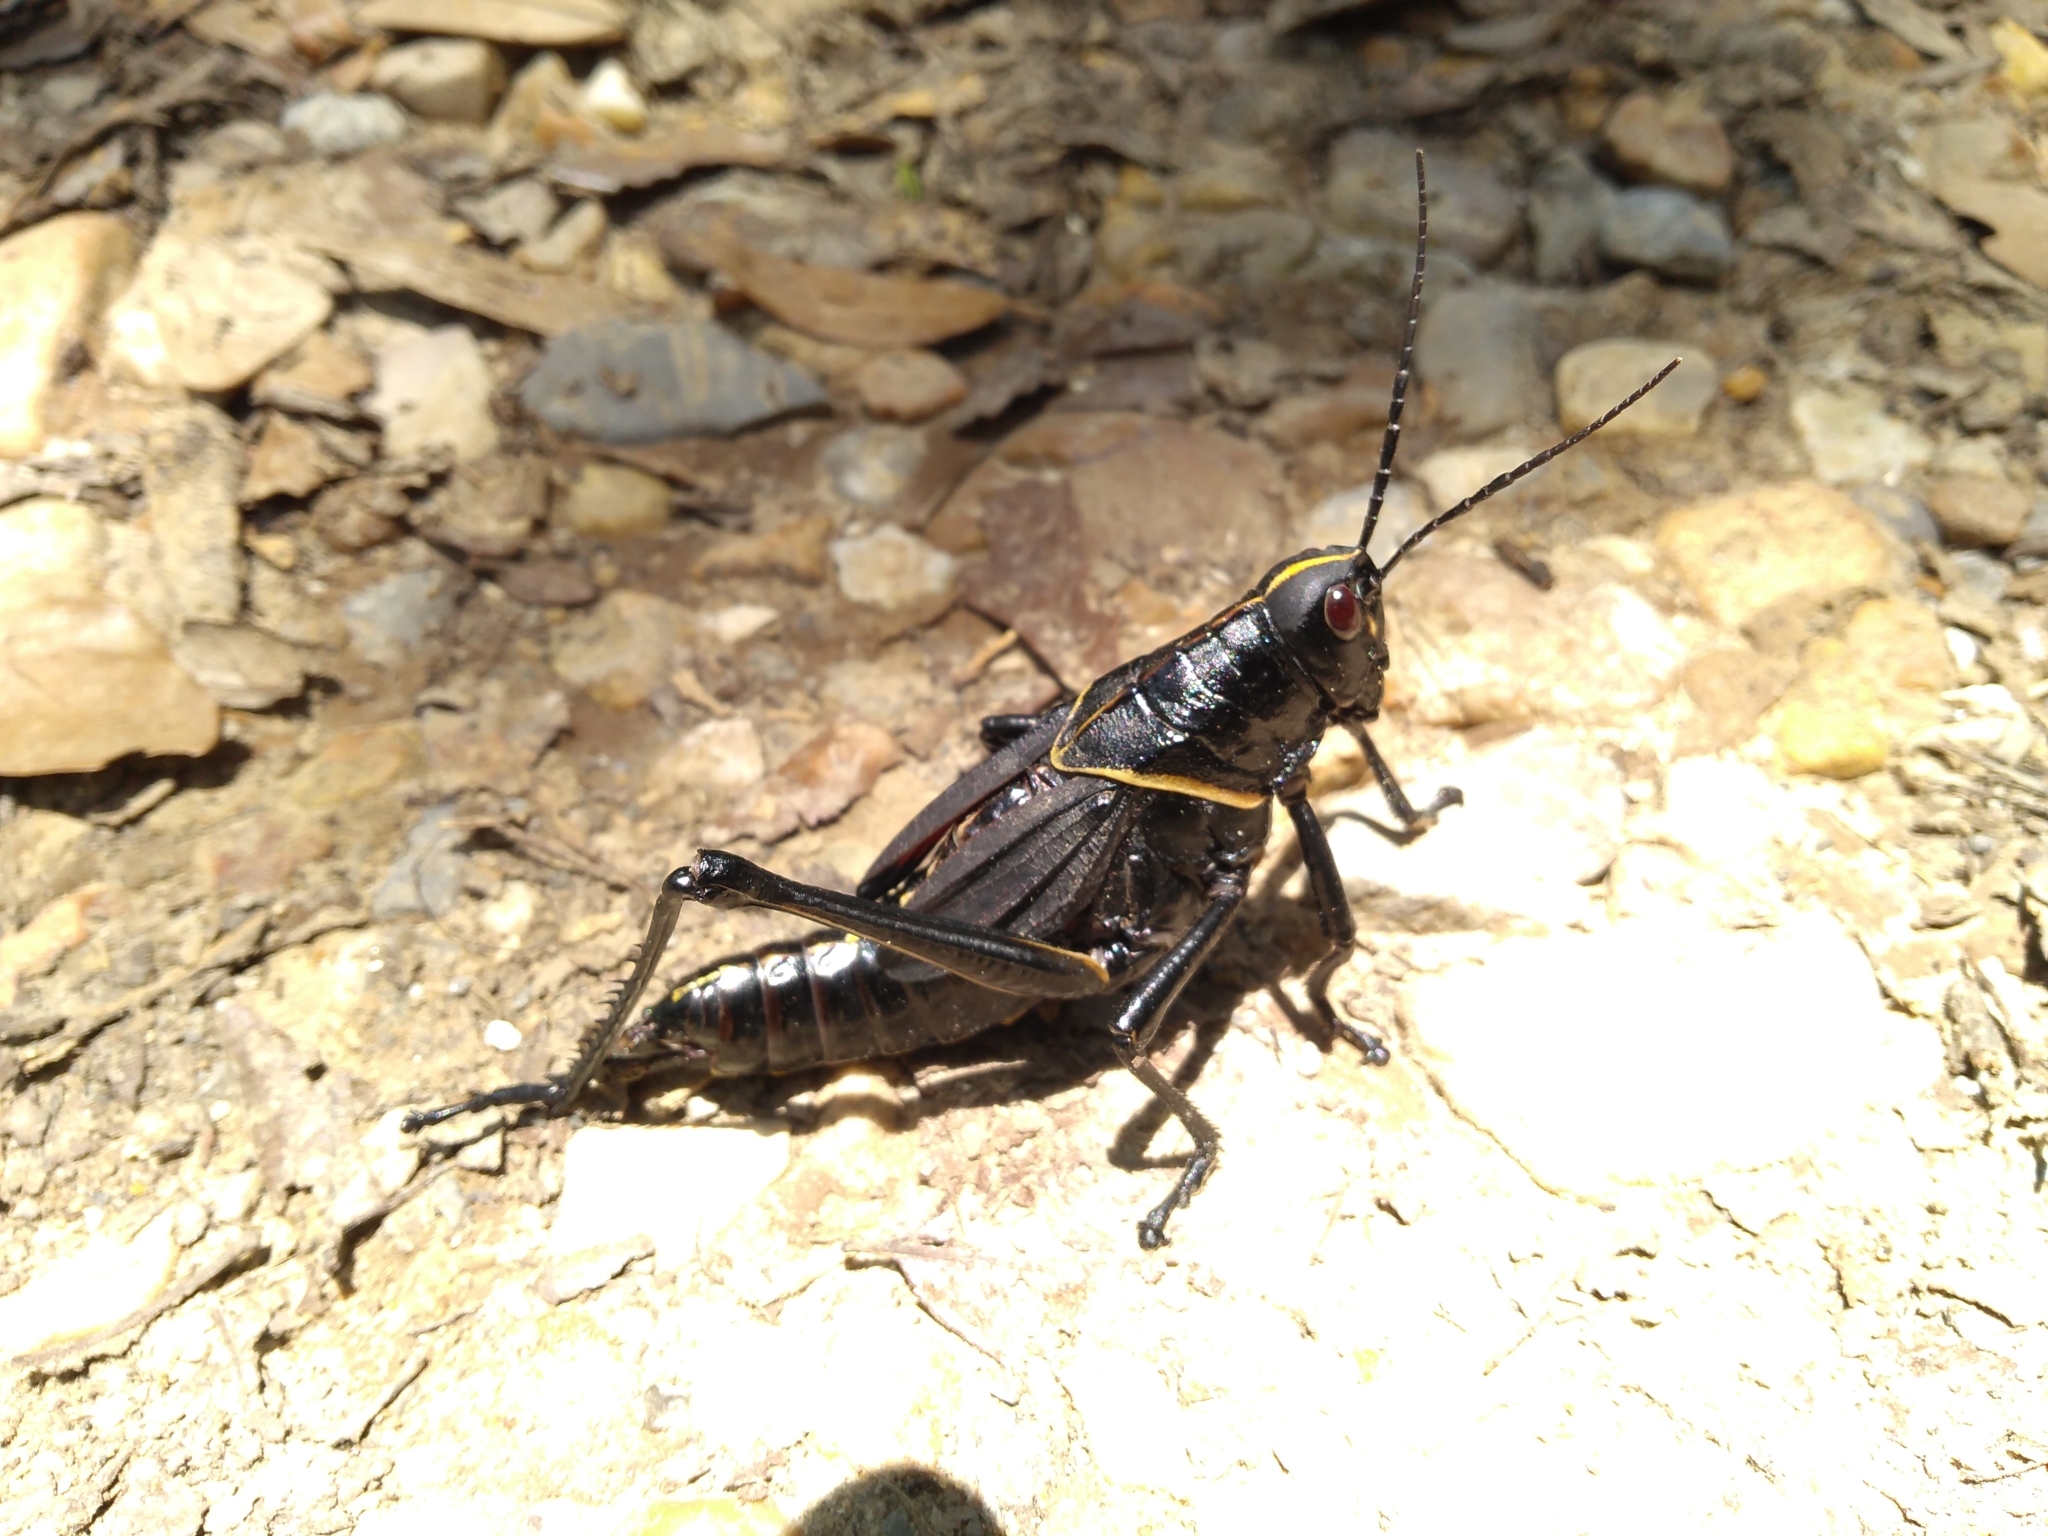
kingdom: Animalia
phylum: Arthropoda
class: Insecta
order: Orthoptera
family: Romaleidae
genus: Romalea
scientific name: Romalea microptera
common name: Eastern lubber grasshopper
